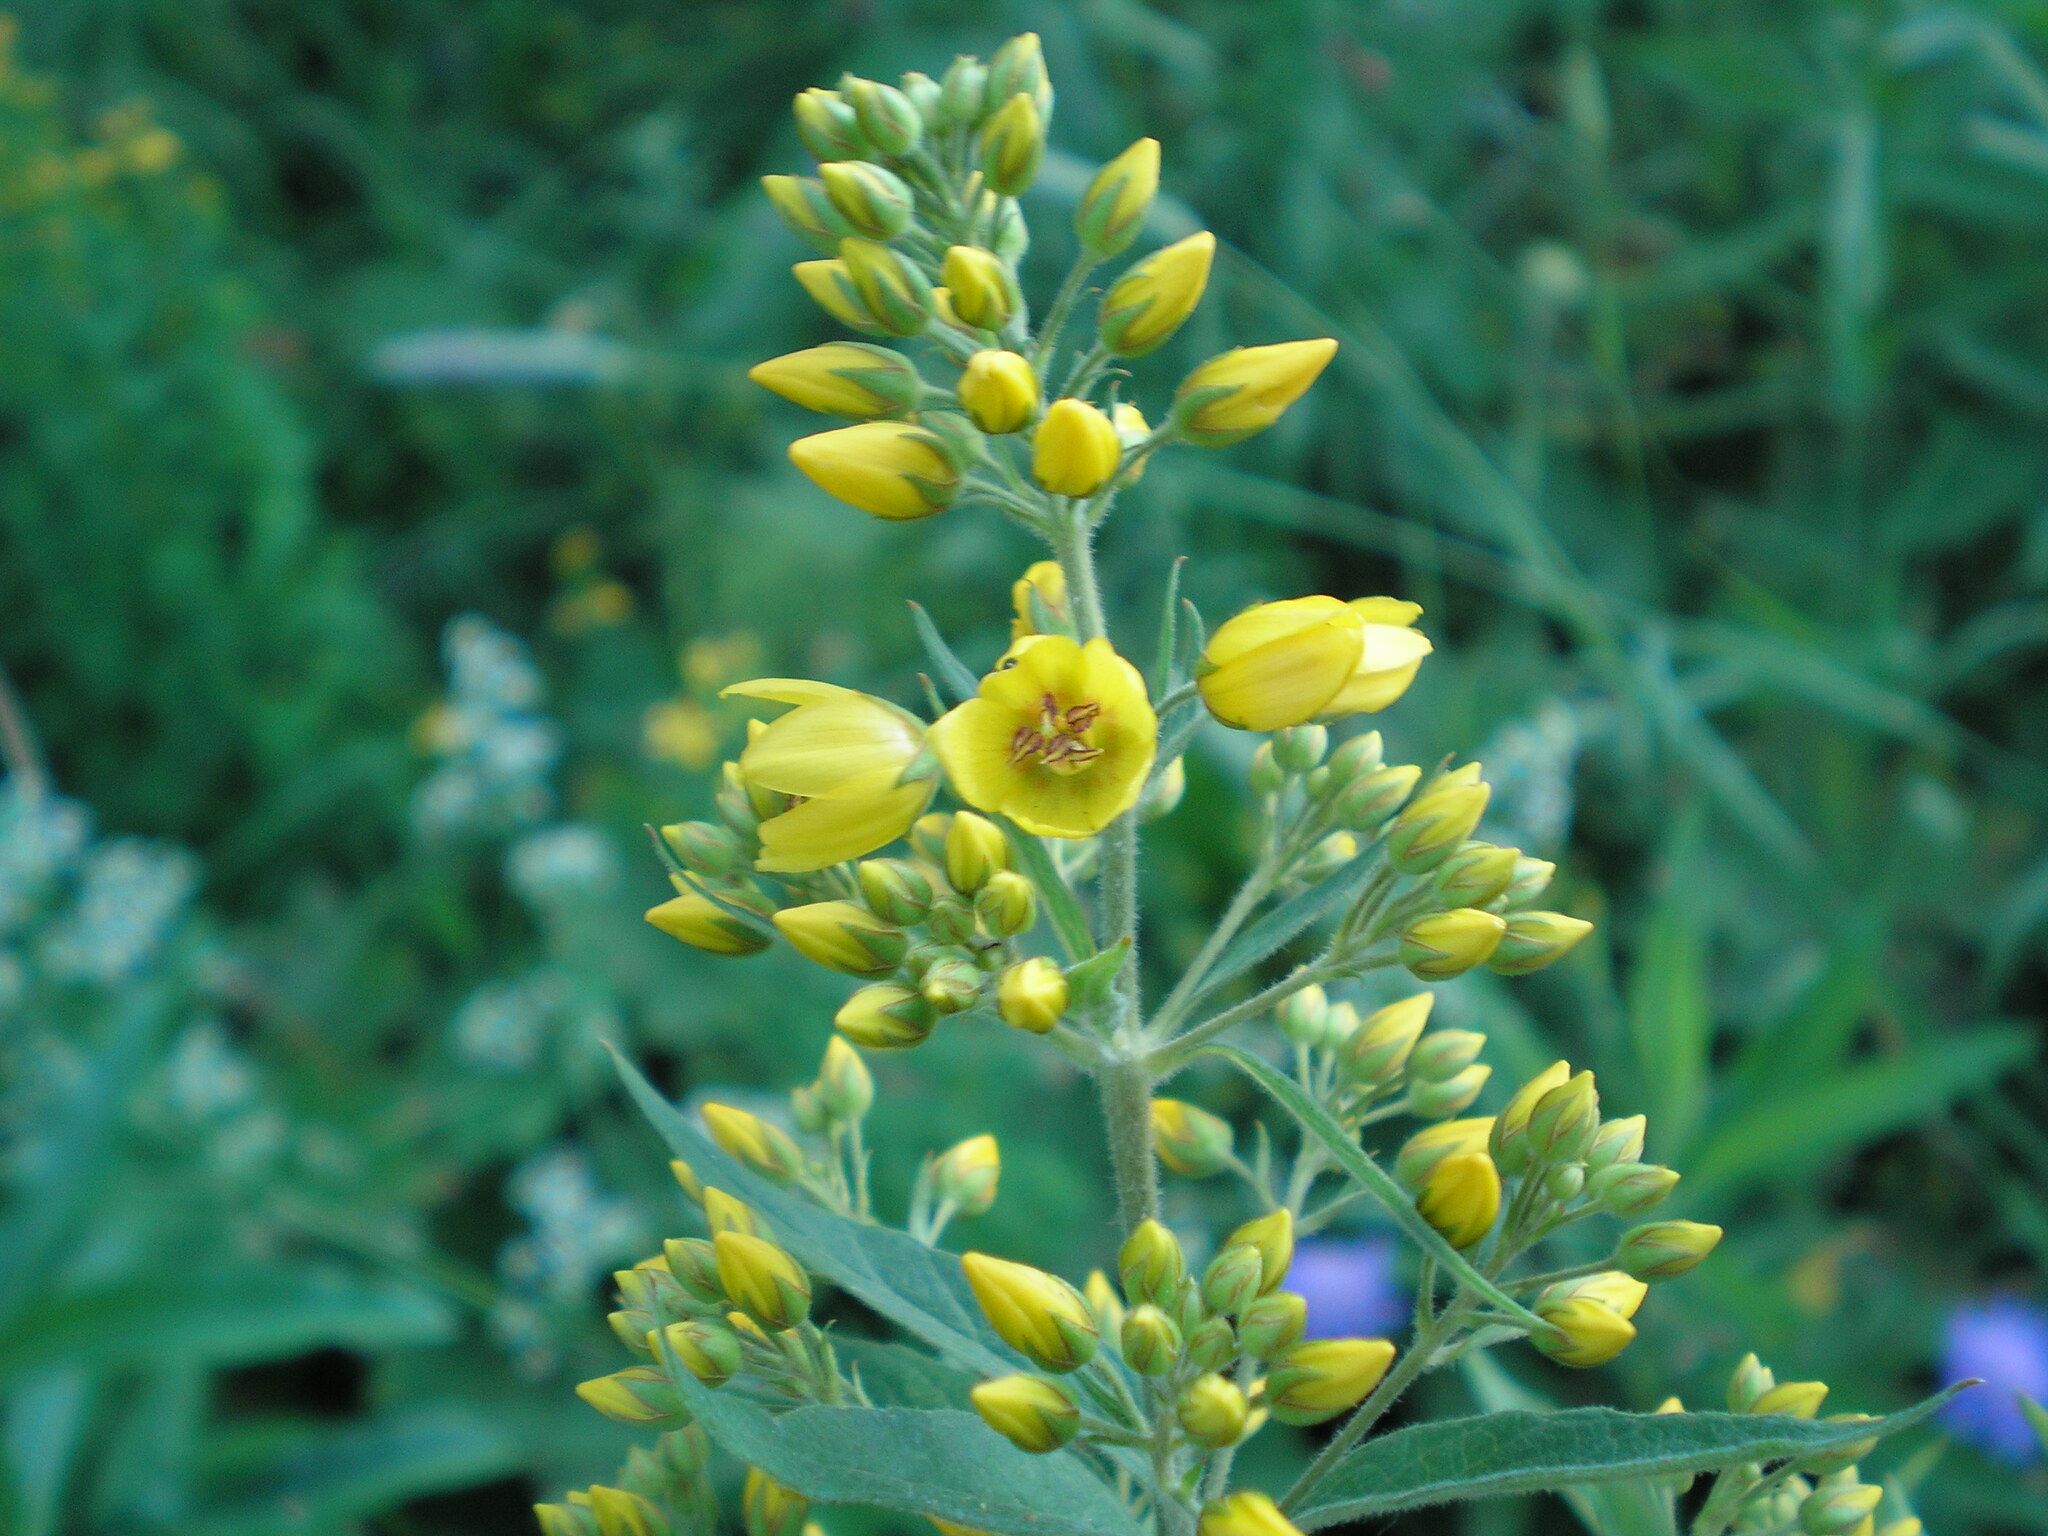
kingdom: Plantae
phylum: Tracheophyta
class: Magnoliopsida
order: Ericales
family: Primulaceae
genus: Lysimachia
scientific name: Lysimachia vulgaris
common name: Yellow loosestrife
